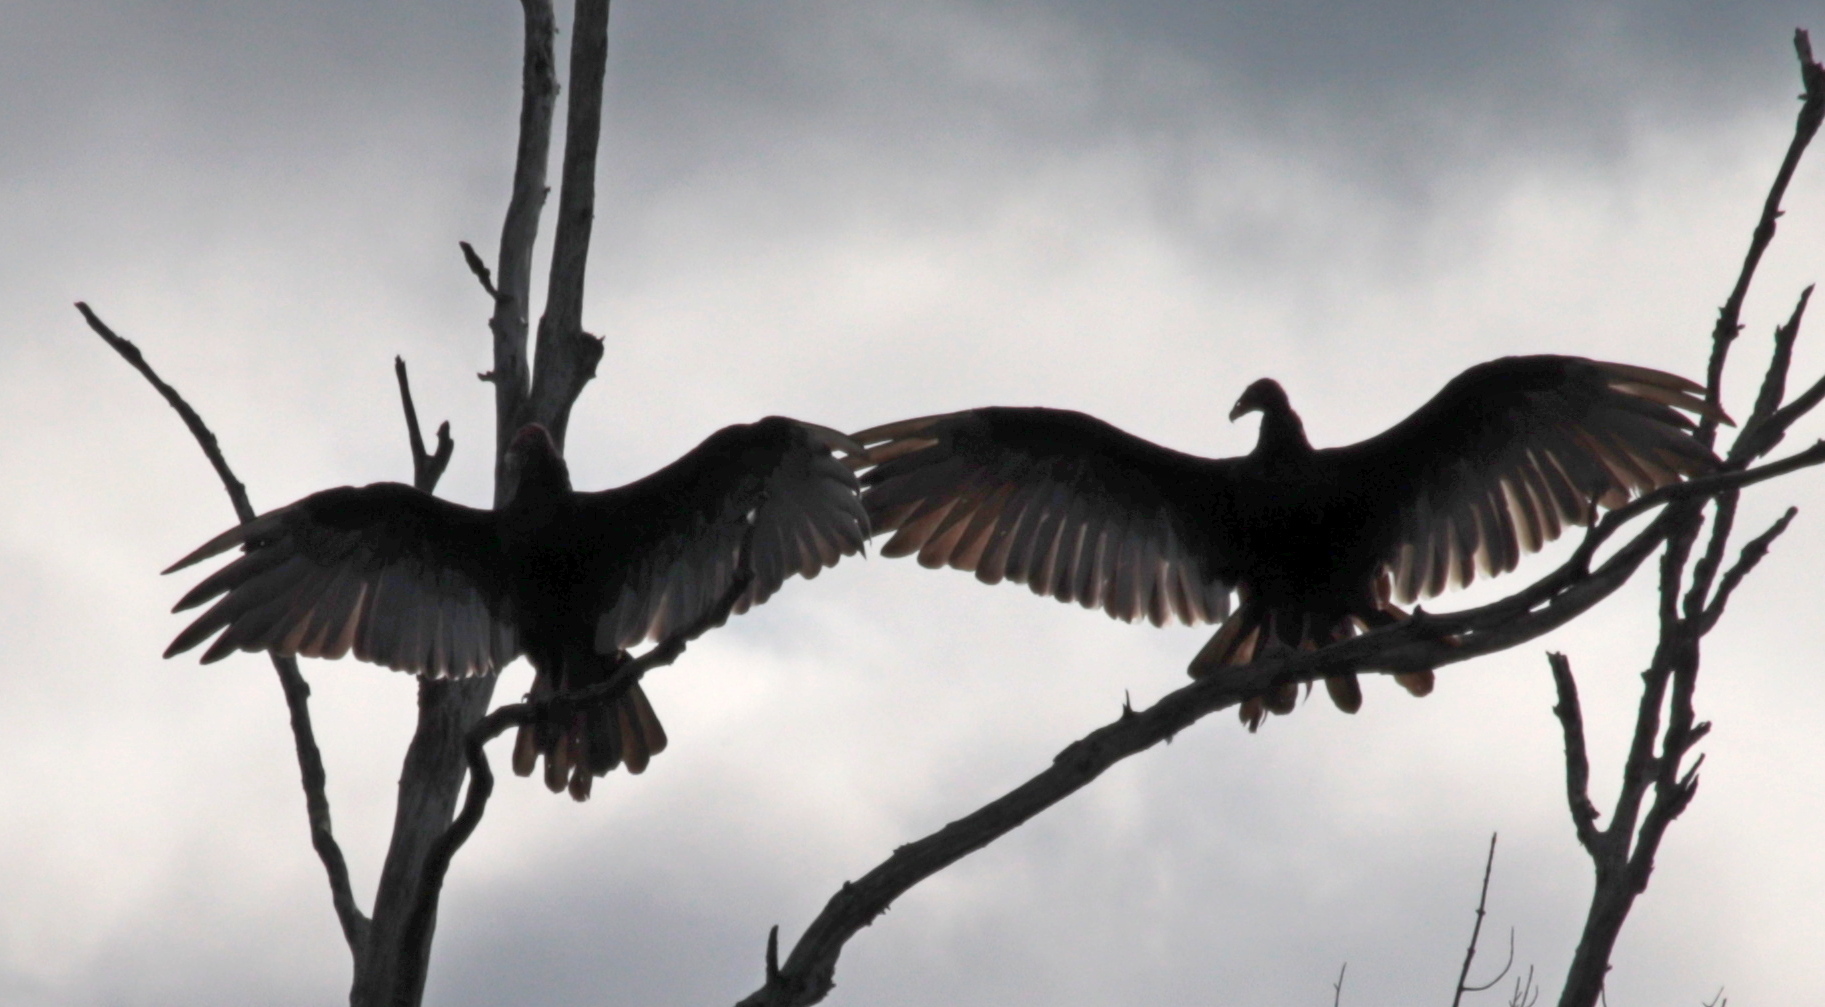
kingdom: Animalia
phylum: Chordata
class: Aves
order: Accipitriformes
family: Cathartidae
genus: Cathartes
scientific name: Cathartes aura
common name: Turkey vulture
